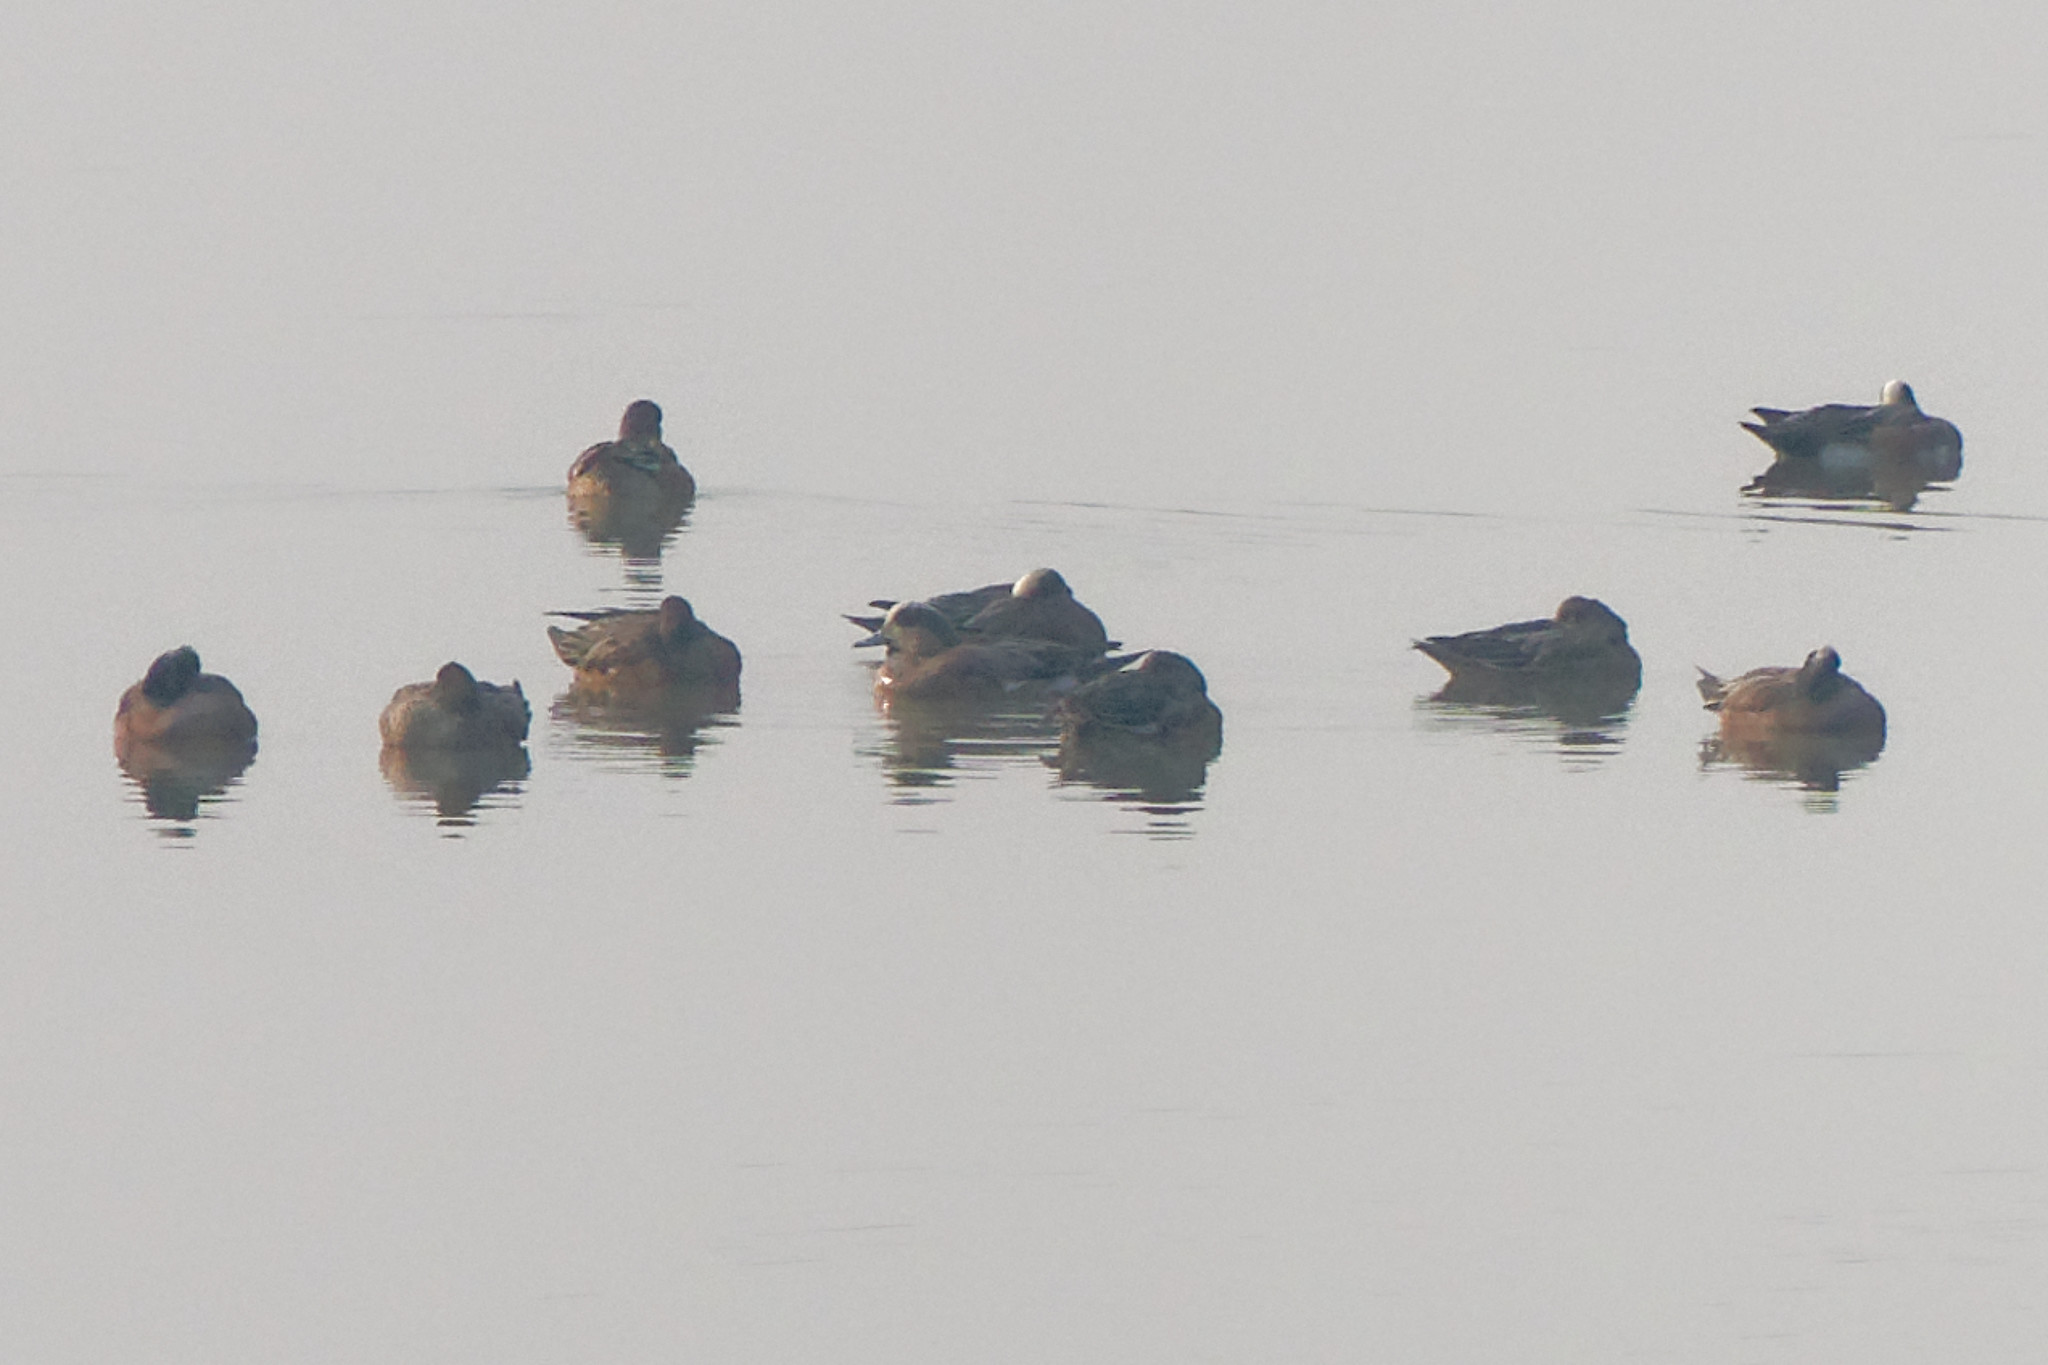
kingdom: Animalia
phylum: Chordata
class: Aves
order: Anseriformes
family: Anatidae
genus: Mareca
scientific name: Mareca americana
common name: American wigeon
